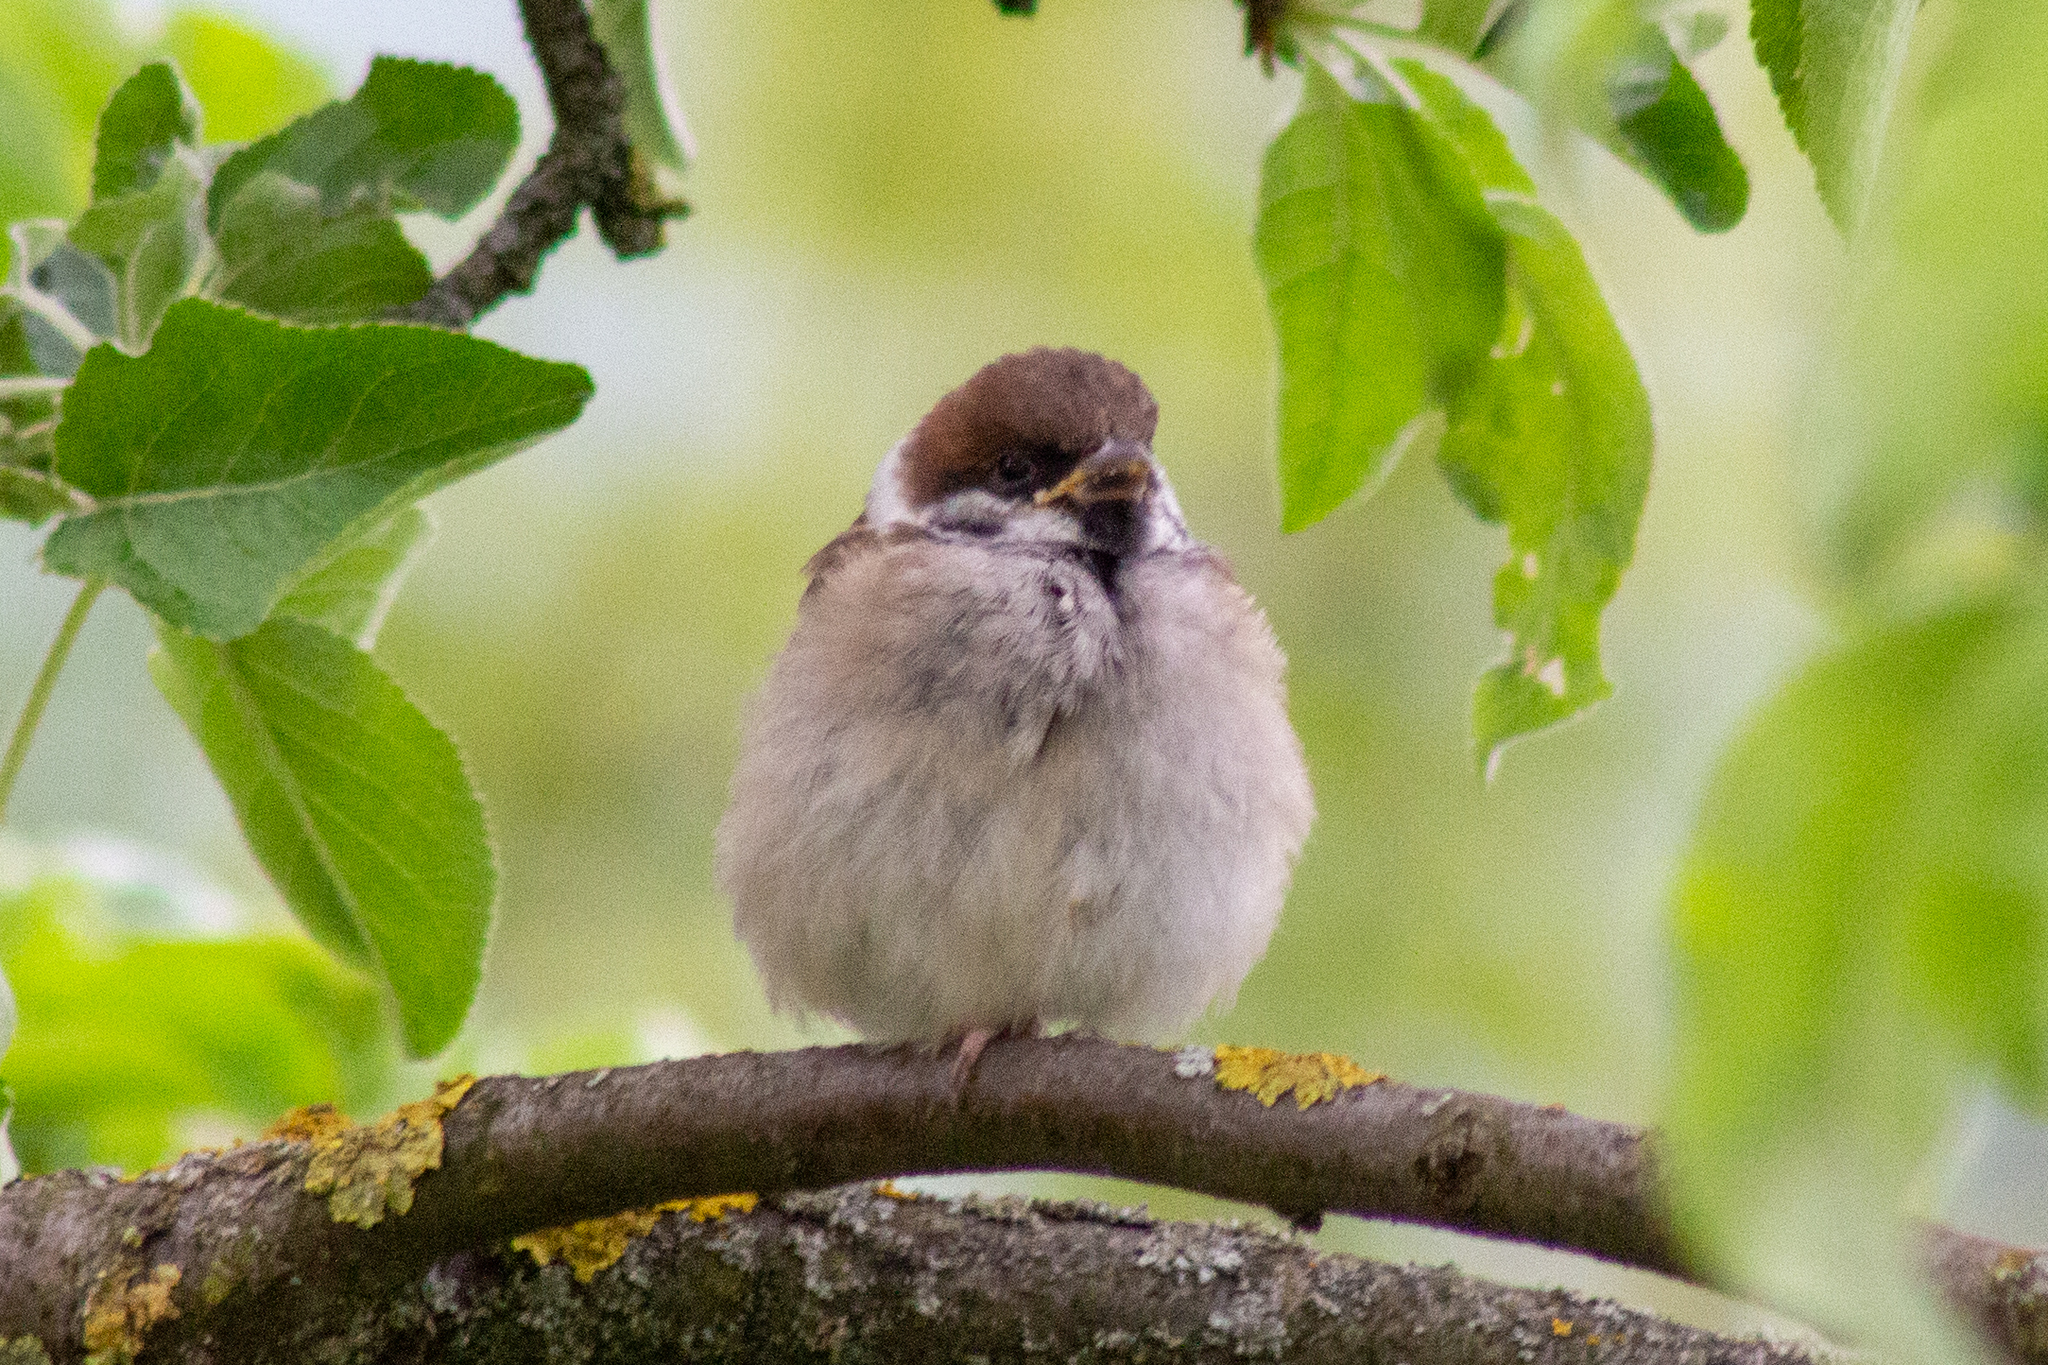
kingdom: Animalia
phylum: Chordata
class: Aves
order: Passeriformes
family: Passeridae
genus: Passer
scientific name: Passer montanus
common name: Eurasian tree sparrow
